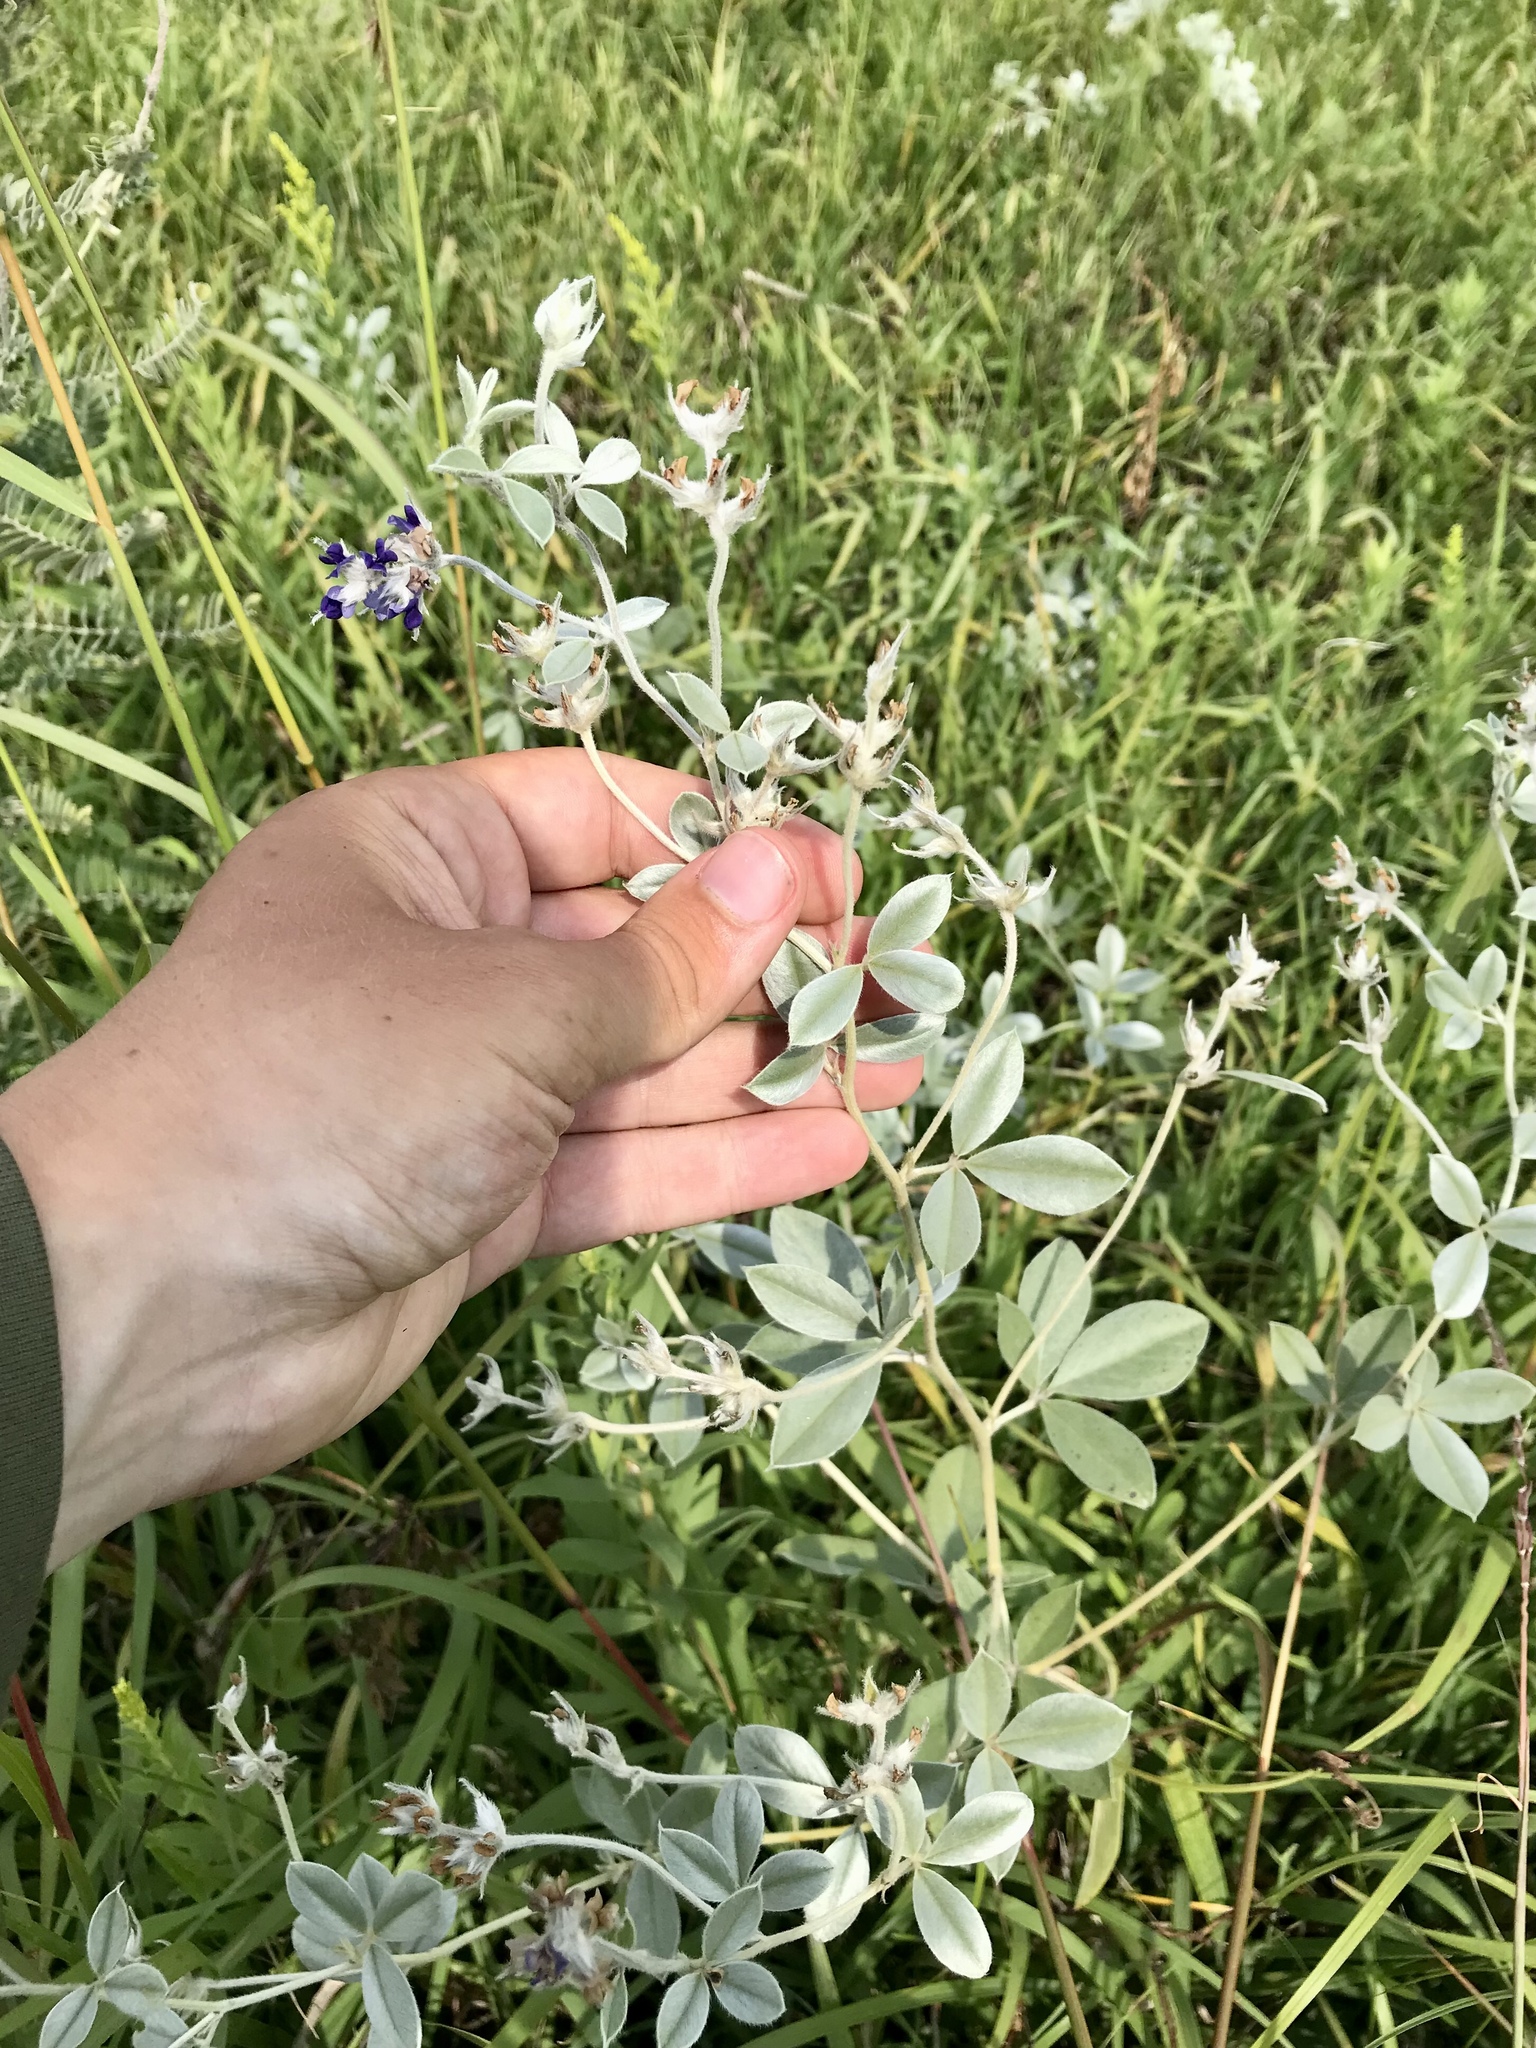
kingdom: Plantae
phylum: Tracheophyta
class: Magnoliopsida
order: Fabales
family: Fabaceae
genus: Pediomelum
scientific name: Pediomelum argophyllum
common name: Silver-leaved indian breadroot
